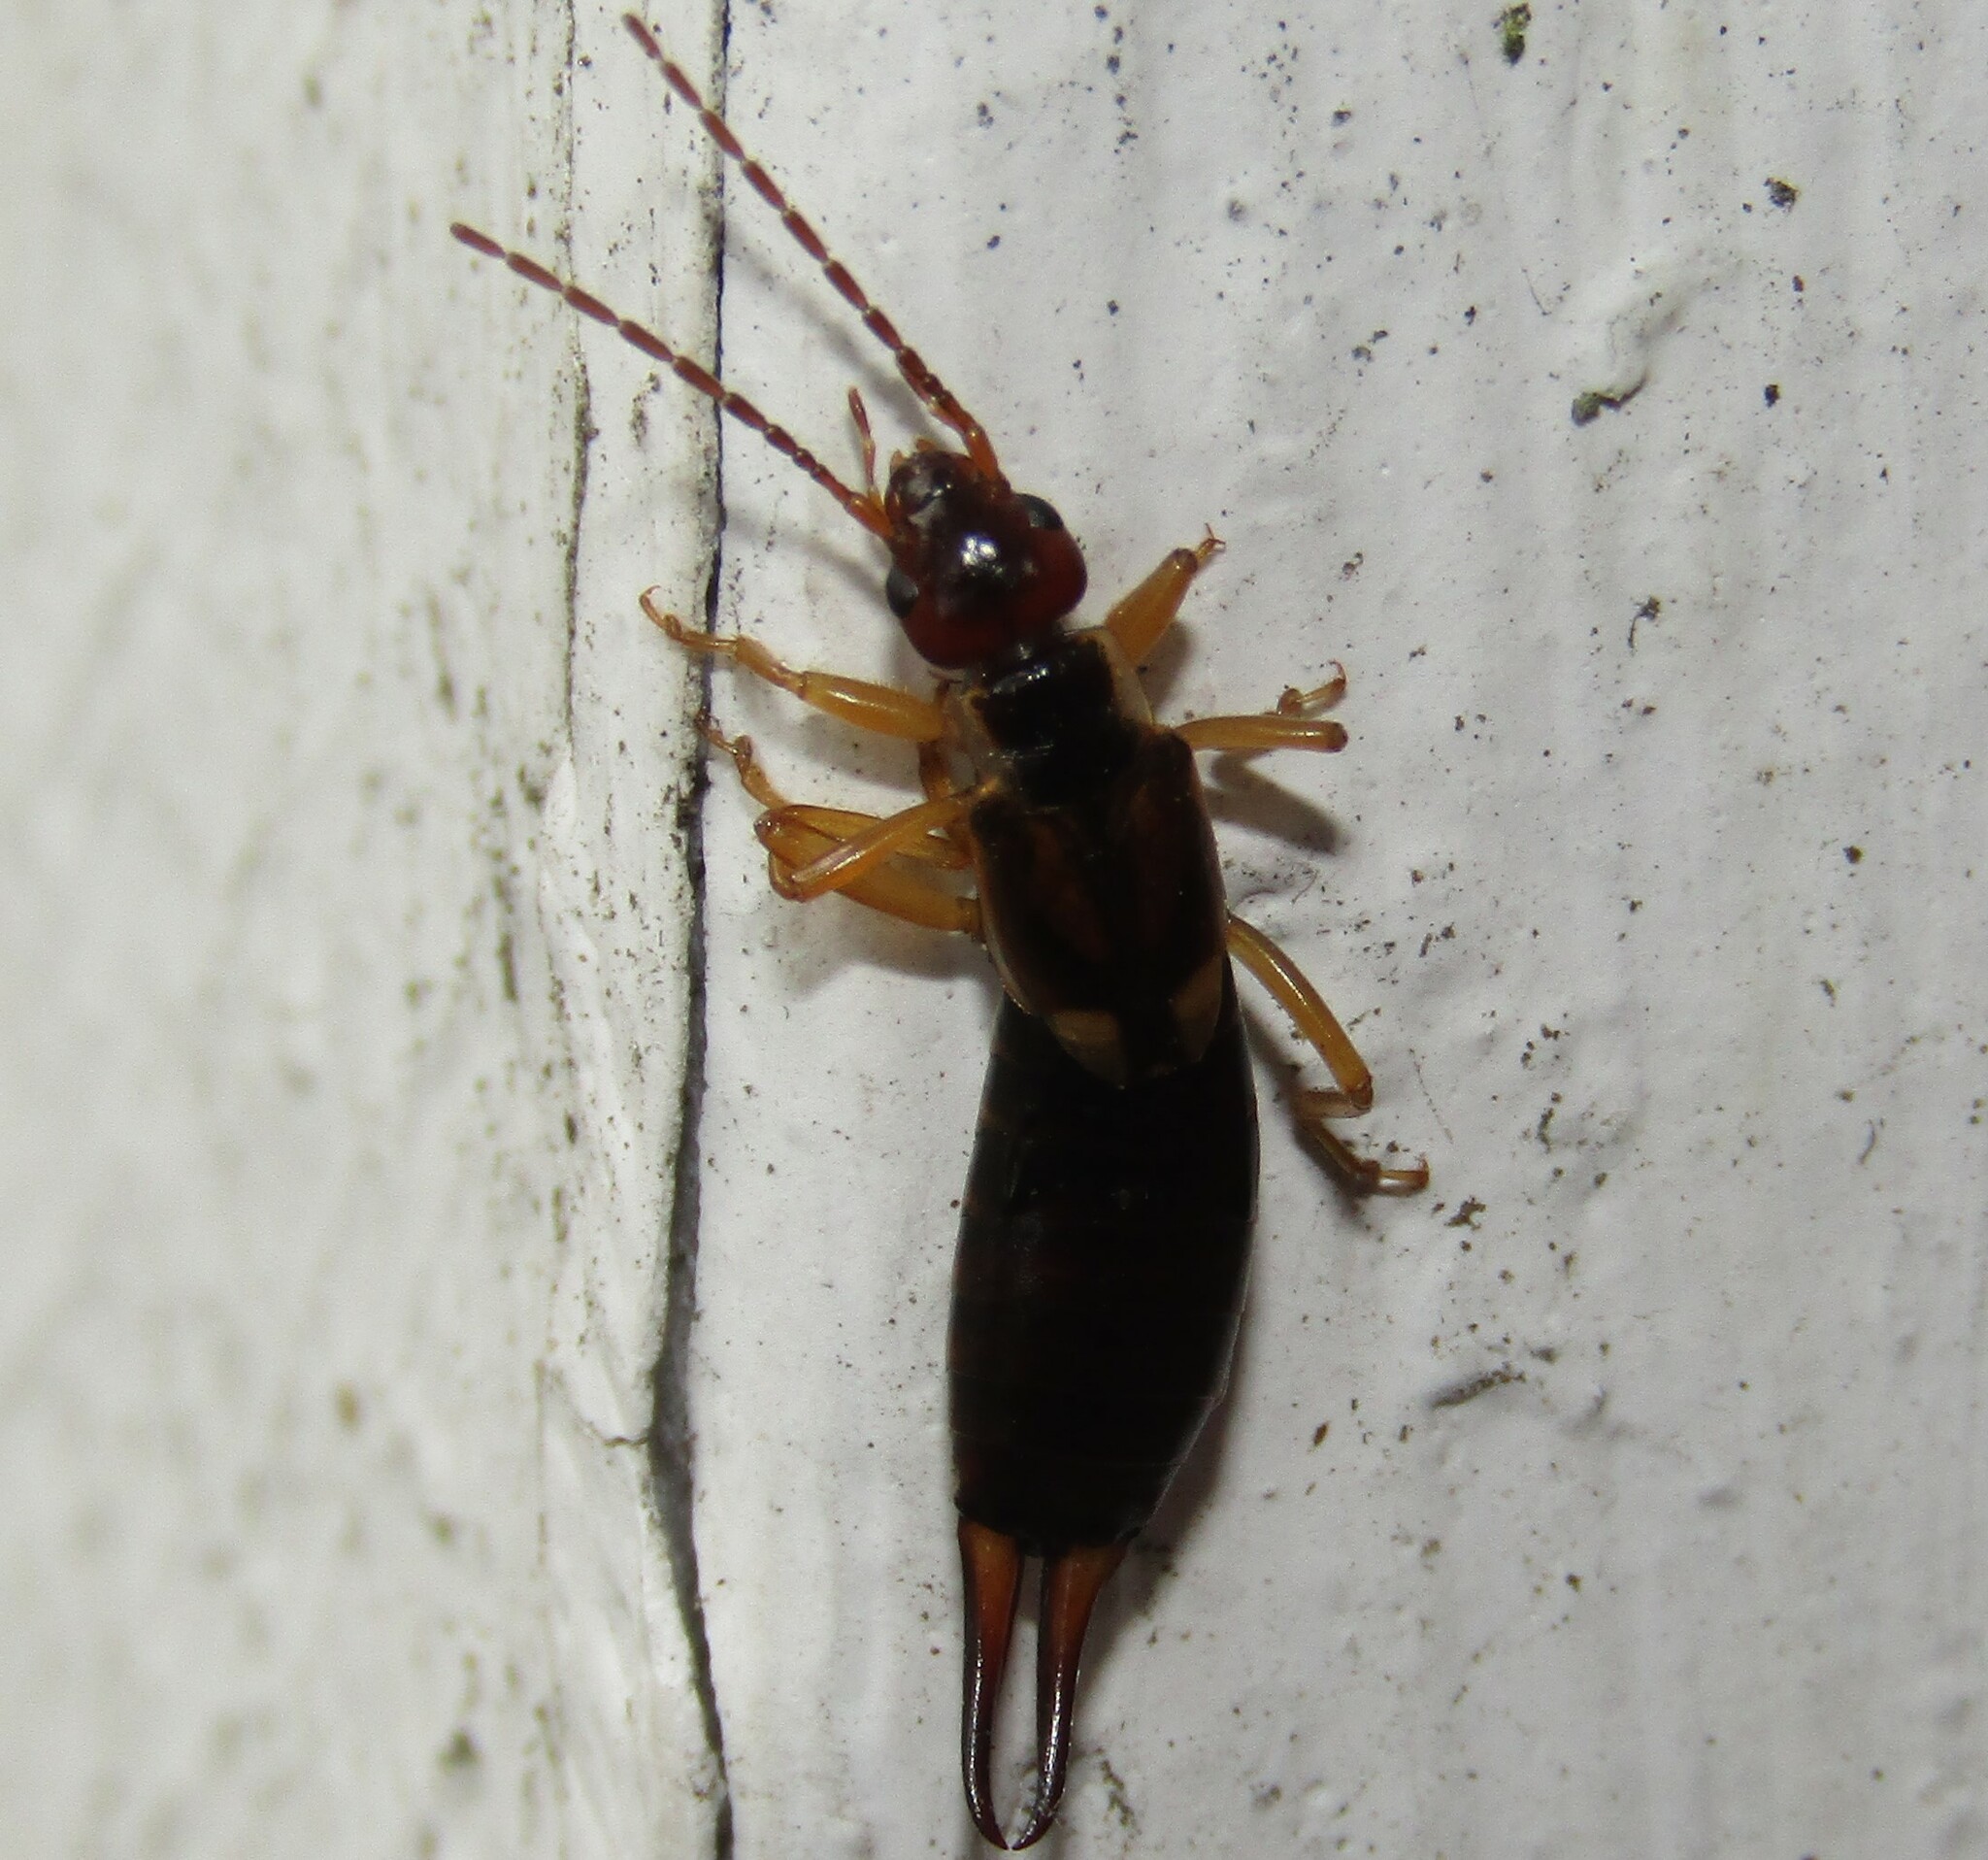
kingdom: Animalia
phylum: Arthropoda
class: Insecta
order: Dermaptera
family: Forficulidae
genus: Forficula
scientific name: Forficula
